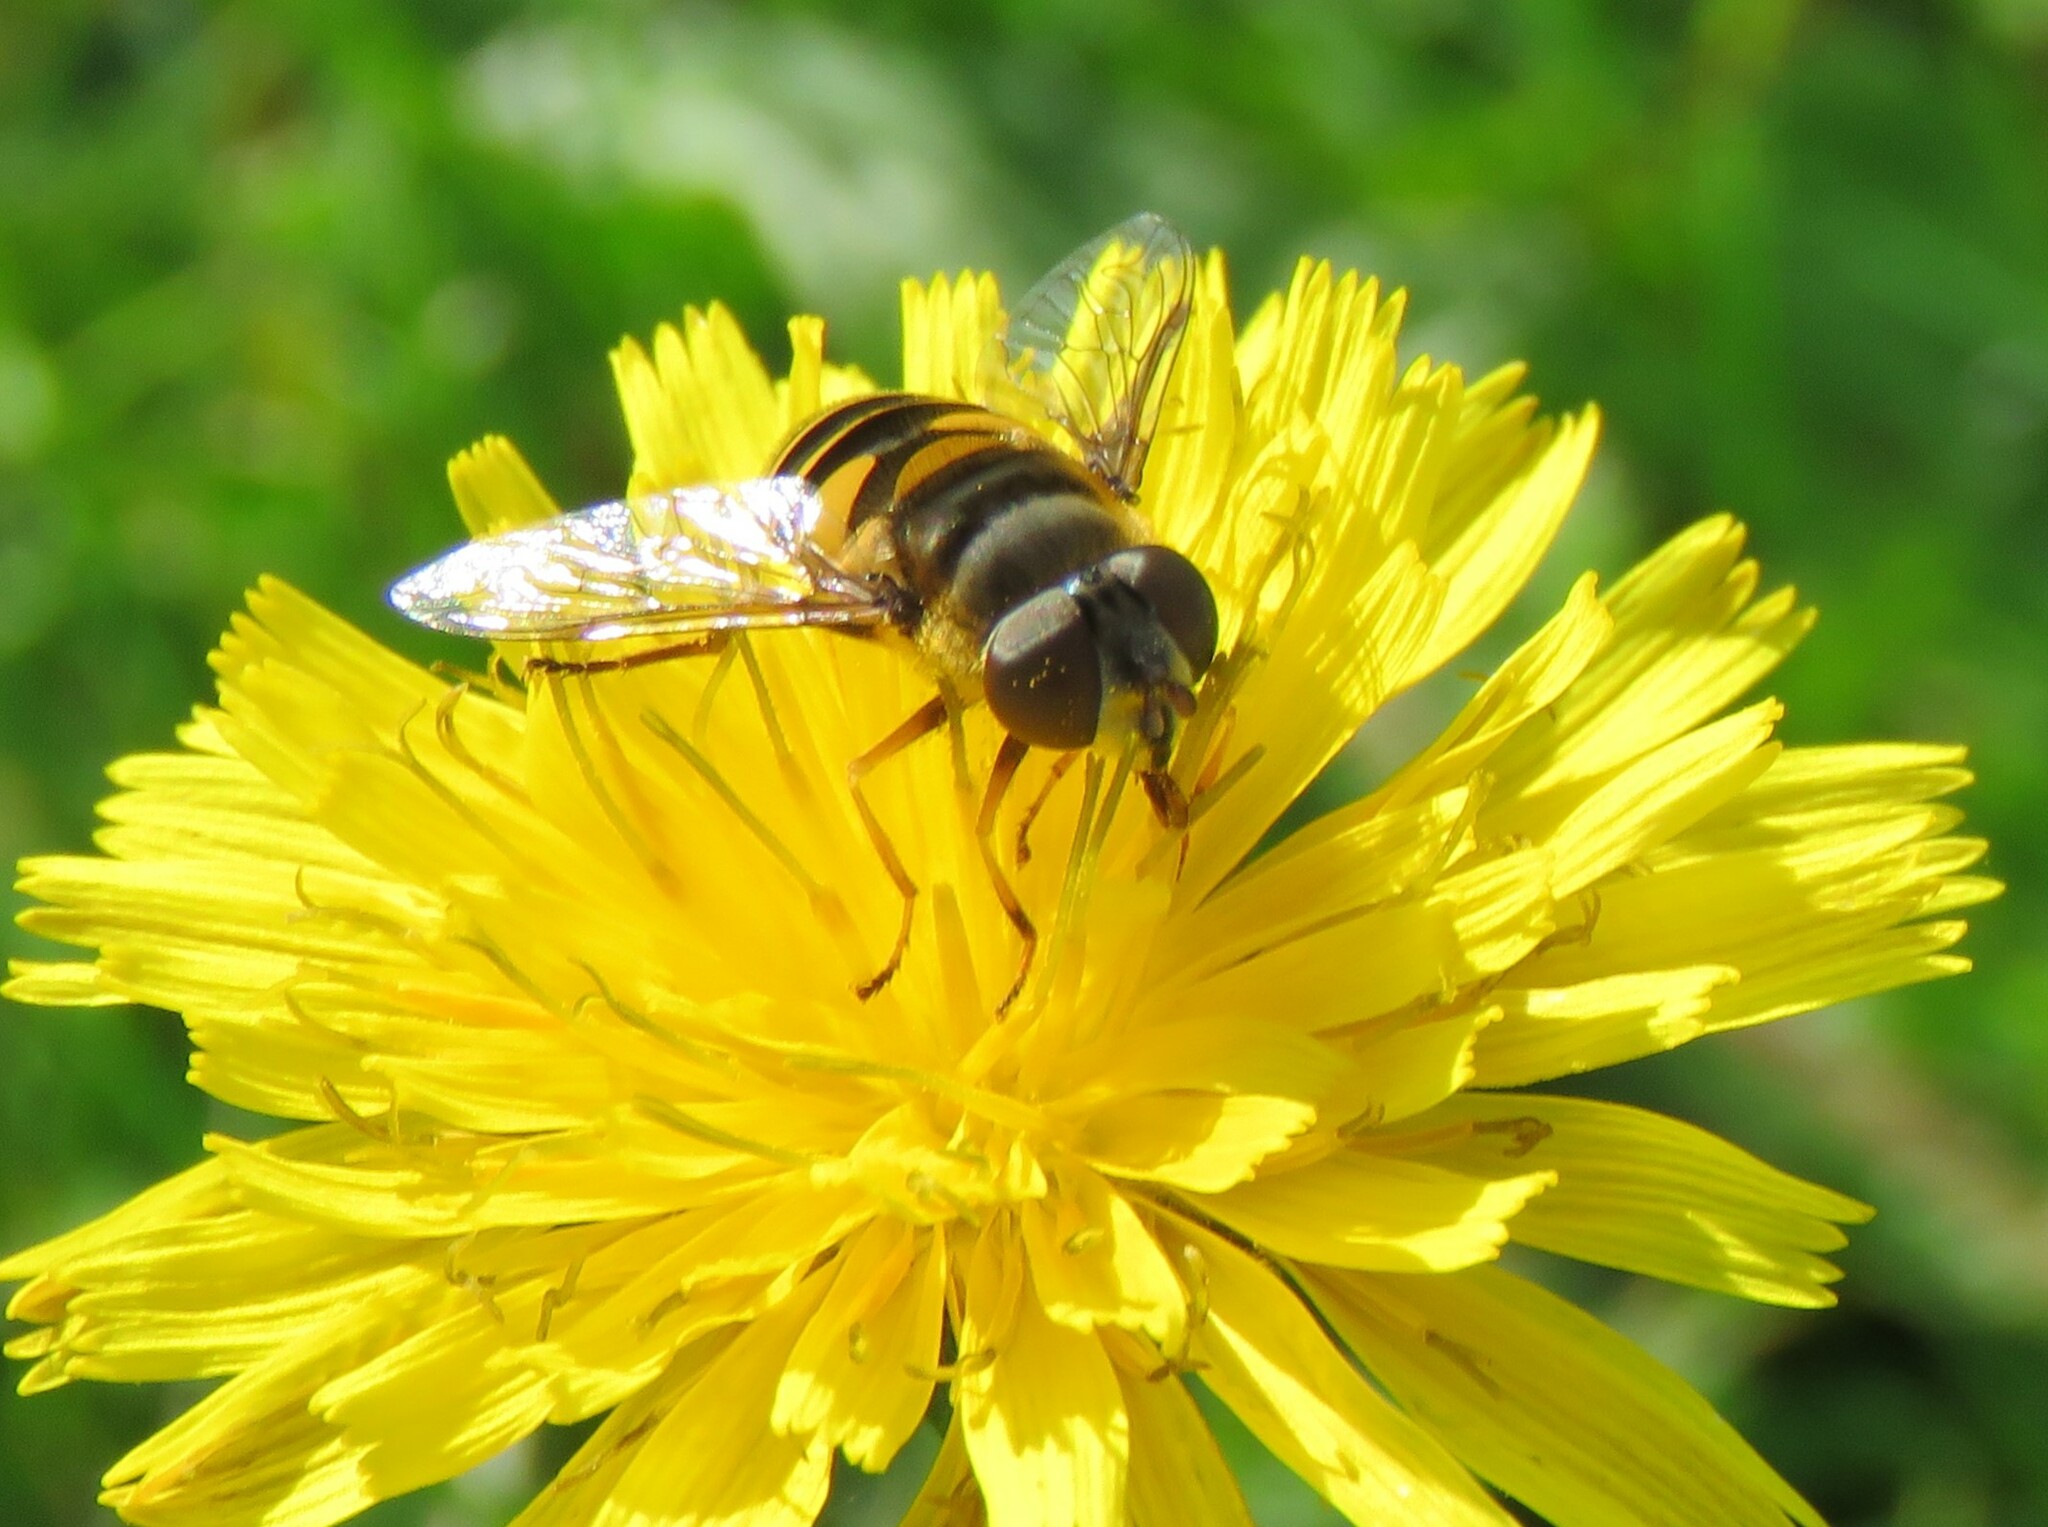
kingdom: Animalia
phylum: Arthropoda
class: Insecta
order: Diptera
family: Syrphidae
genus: Eristalis
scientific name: Eristalis transversa
